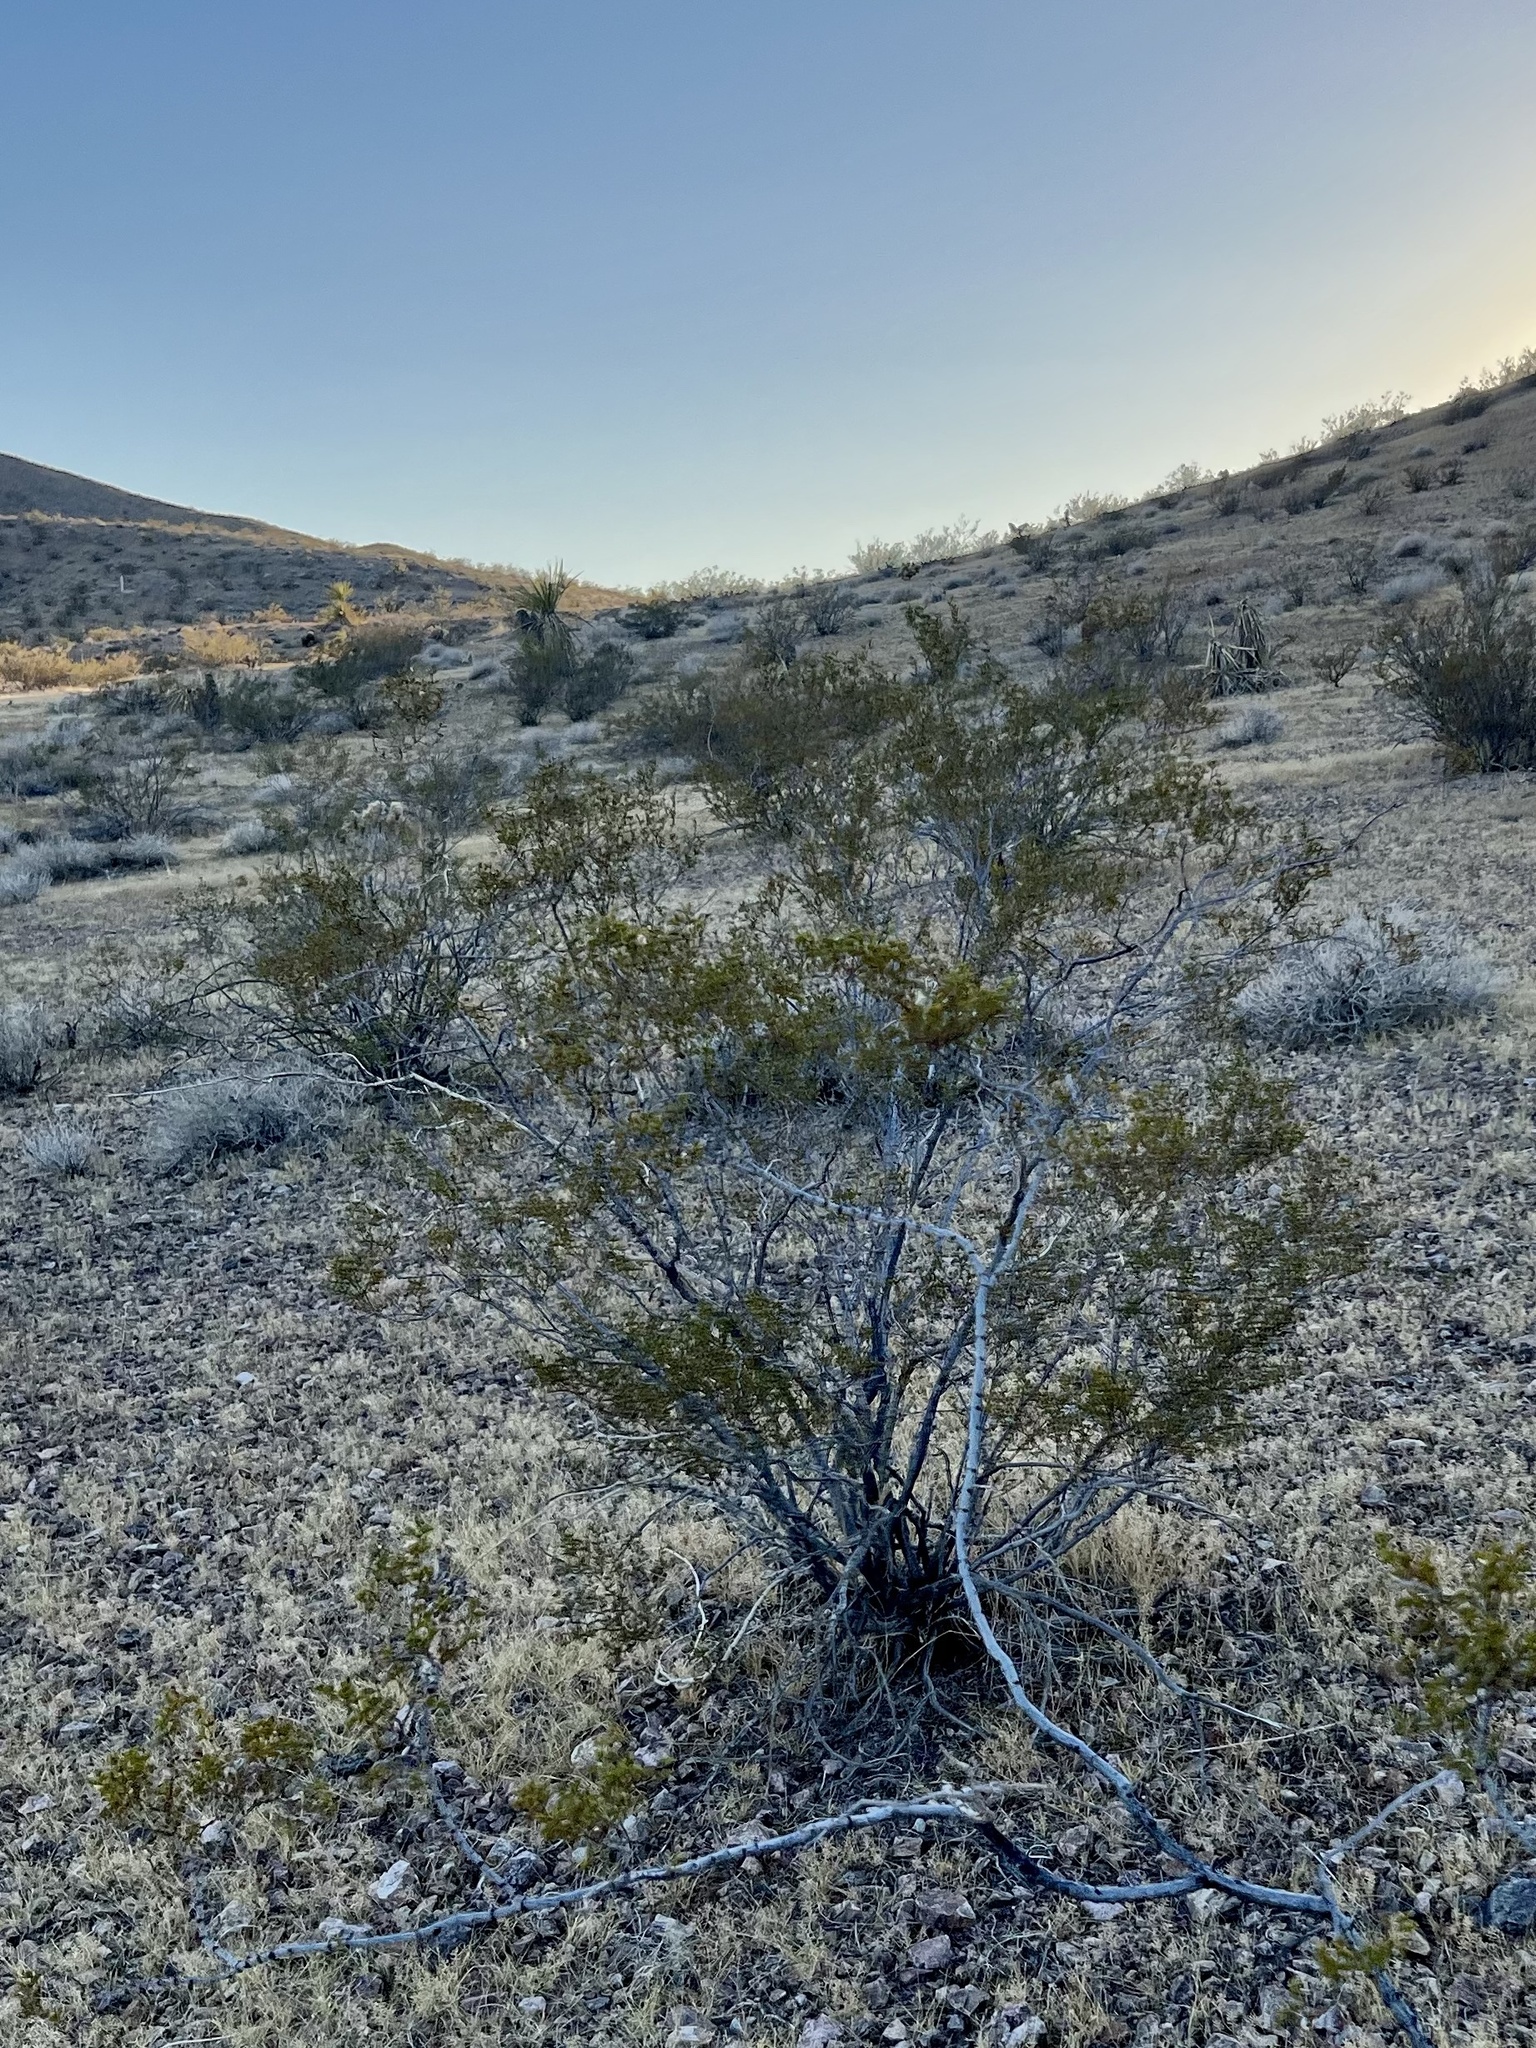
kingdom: Plantae
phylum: Tracheophyta
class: Magnoliopsida
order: Zygophyllales
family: Zygophyllaceae
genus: Larrea
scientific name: Larrea tridentata
